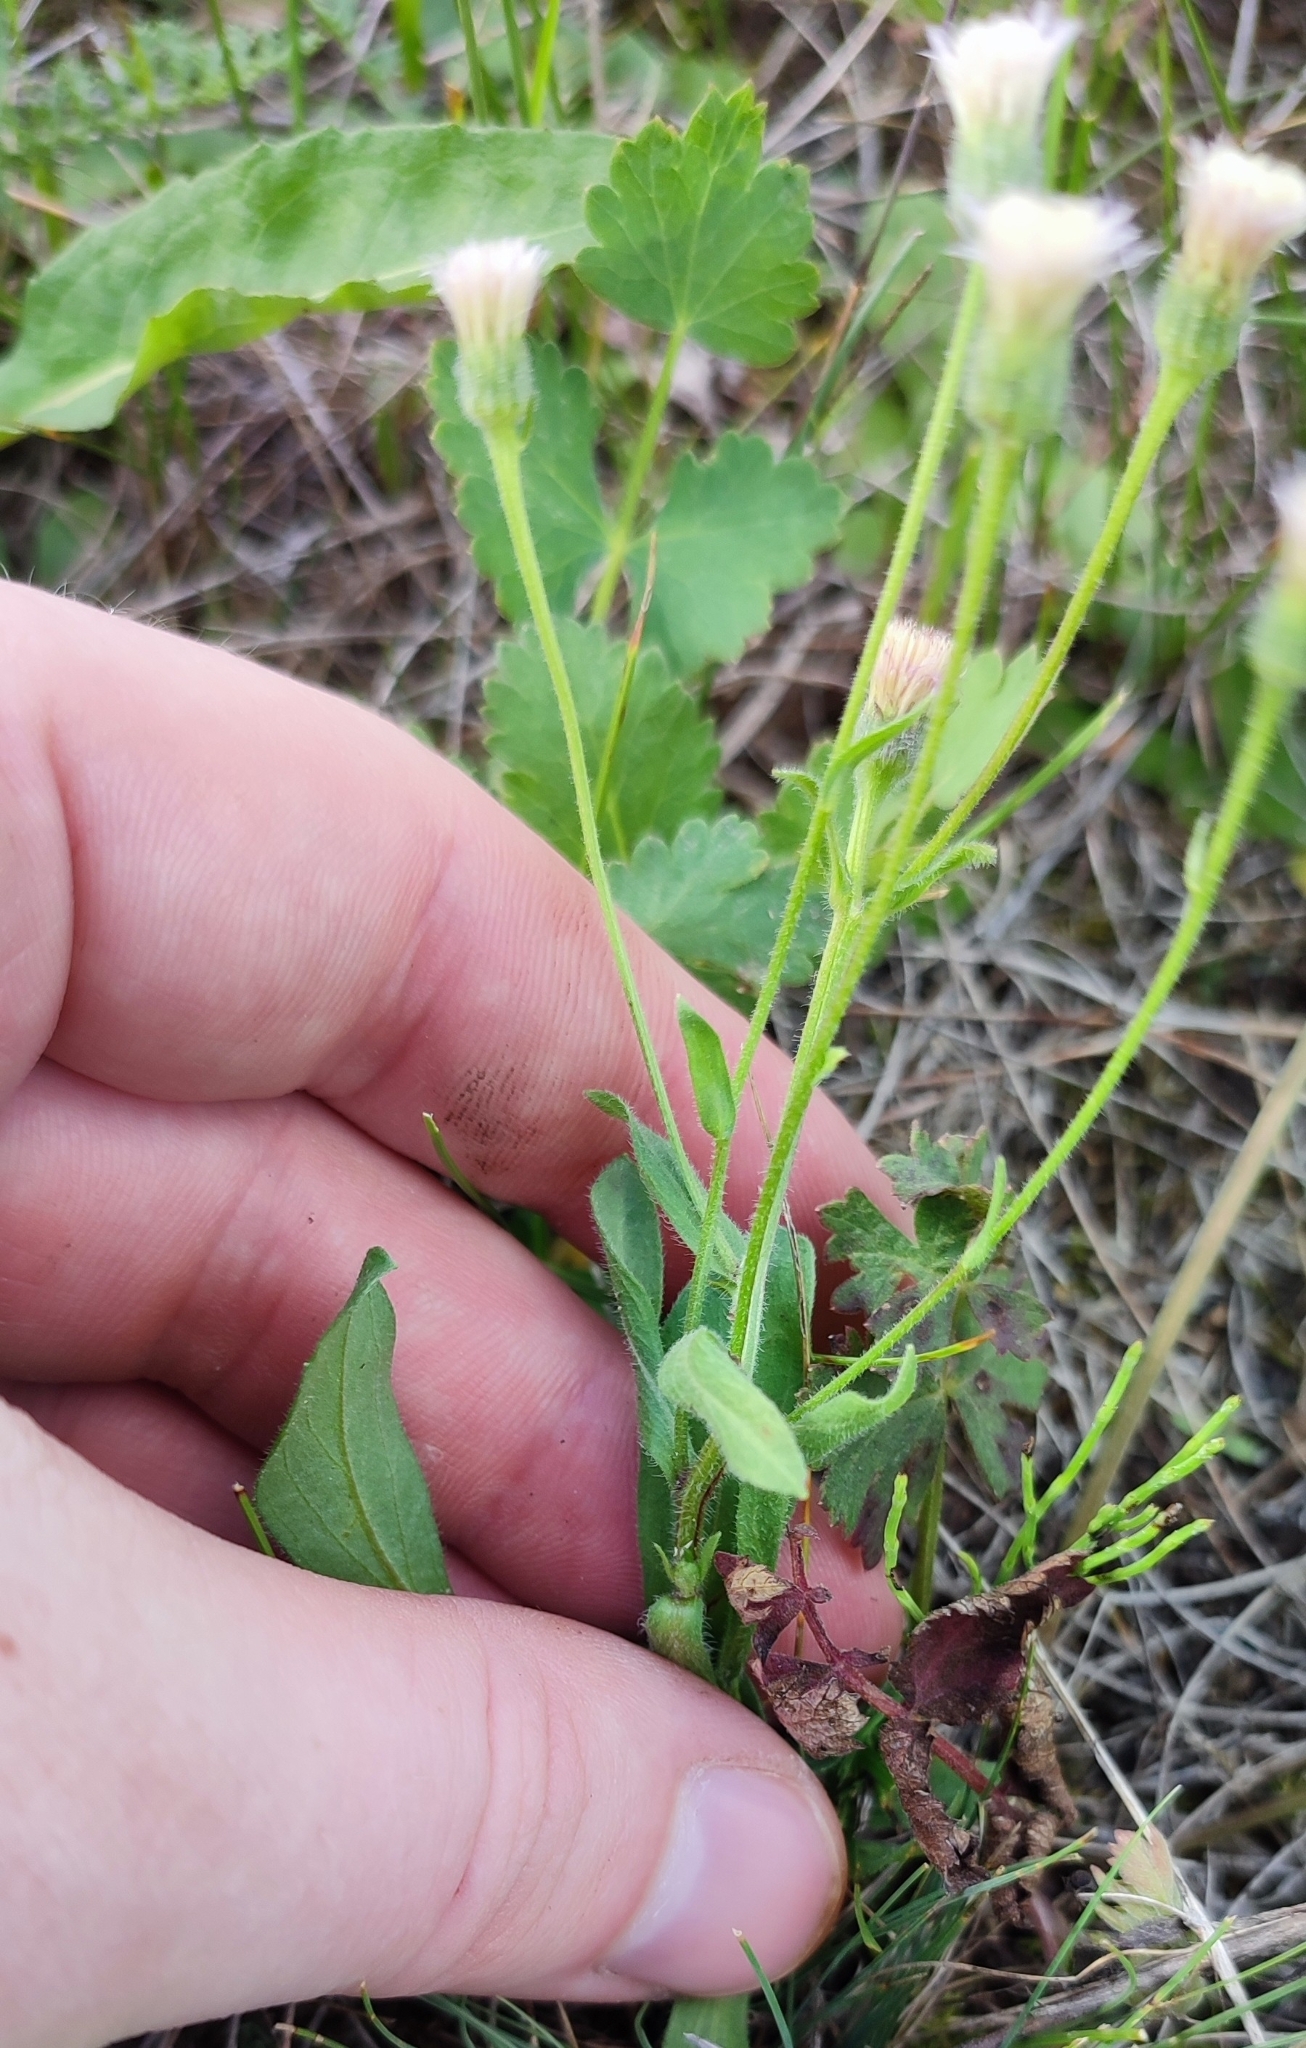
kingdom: Plantae
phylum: Tracheophyta
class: Magnoliopsida
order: Asterales
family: Asteraceae
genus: Erigeron
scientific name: Erigeron acris
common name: Blue fleabane
